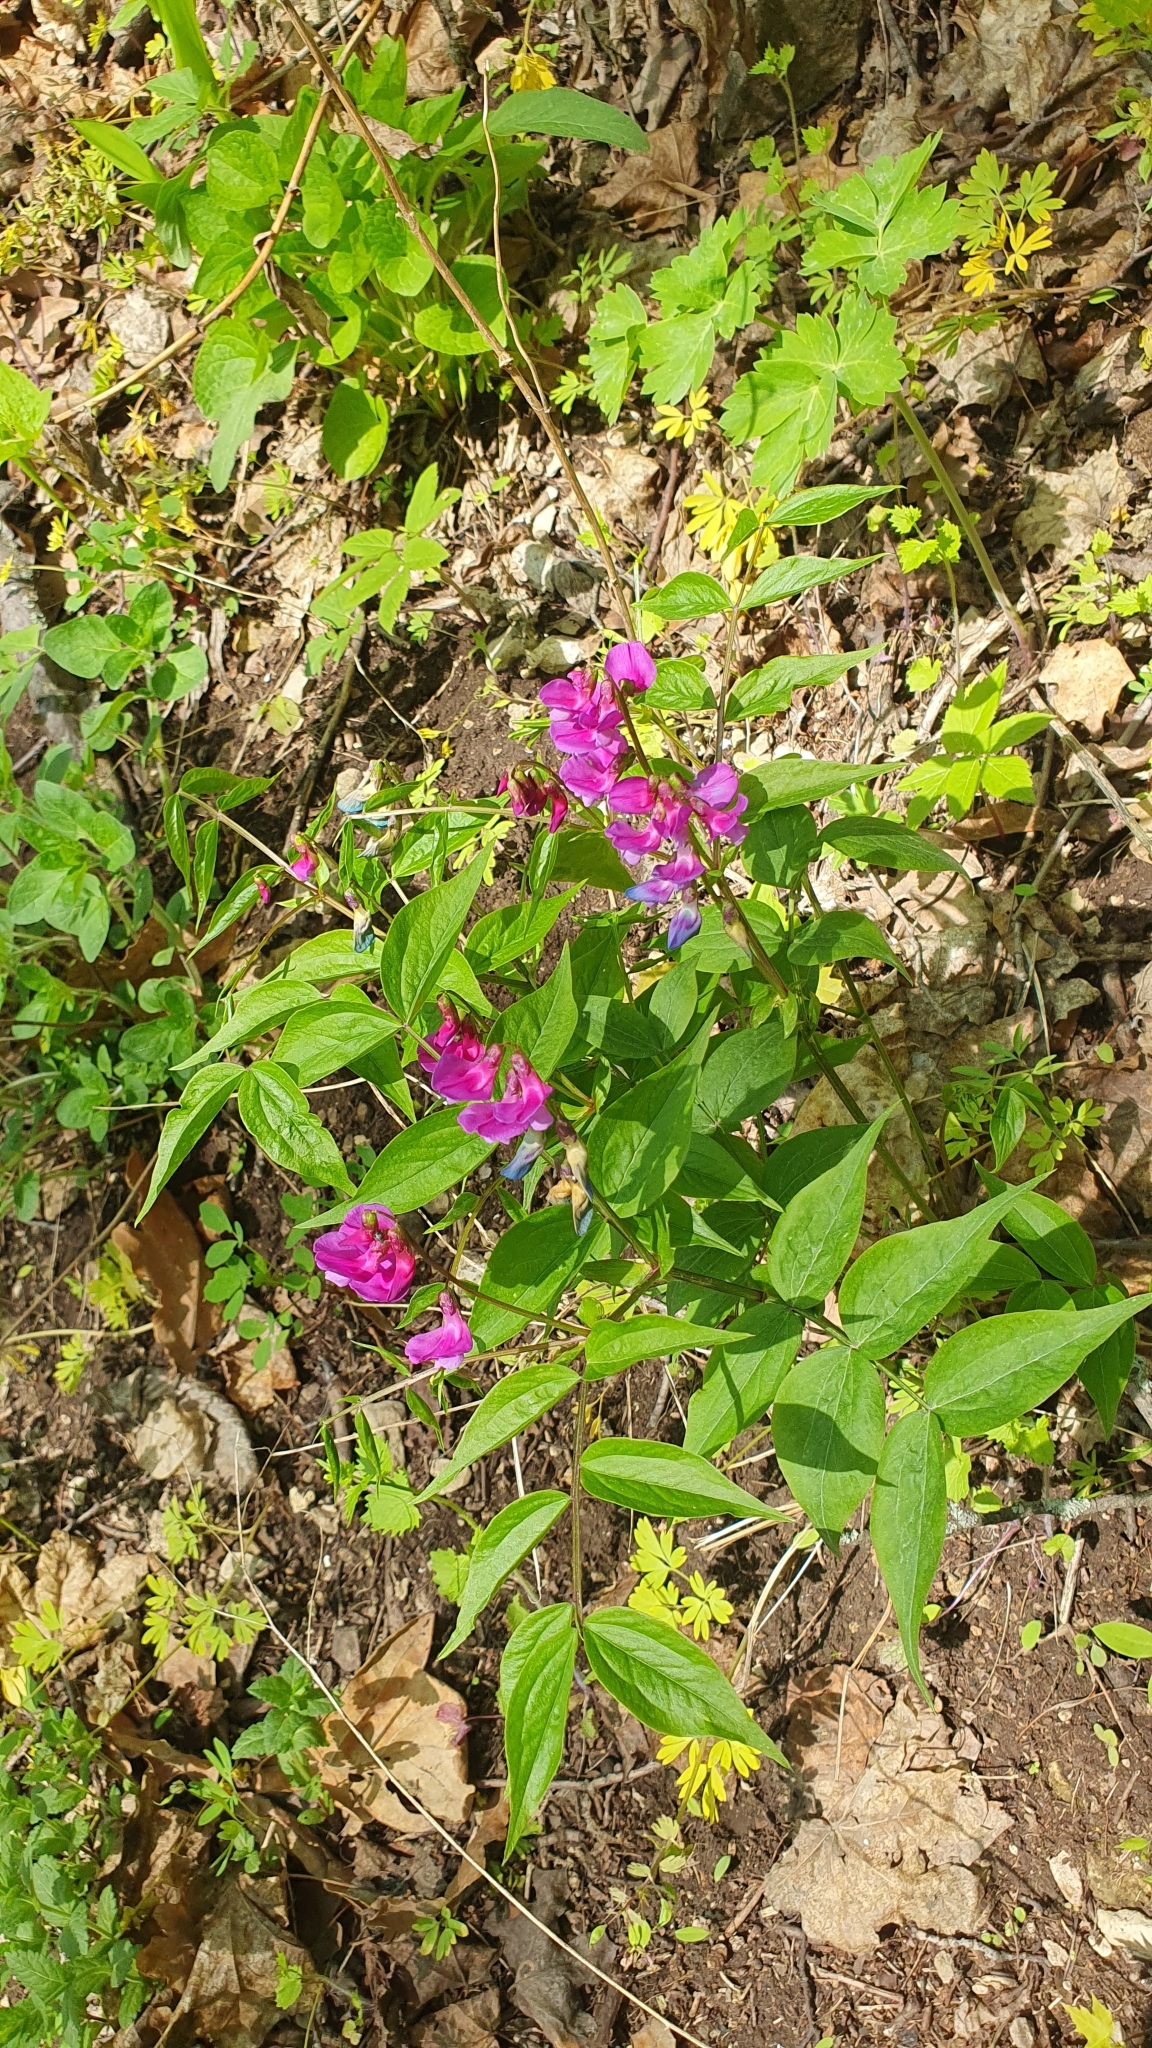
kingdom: Plantae
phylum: Tracheophyta
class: Magnoliopsida
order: Fabales
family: Fabaceae
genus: Lathyrus
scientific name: Lathyrus vernus
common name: Spring pea
